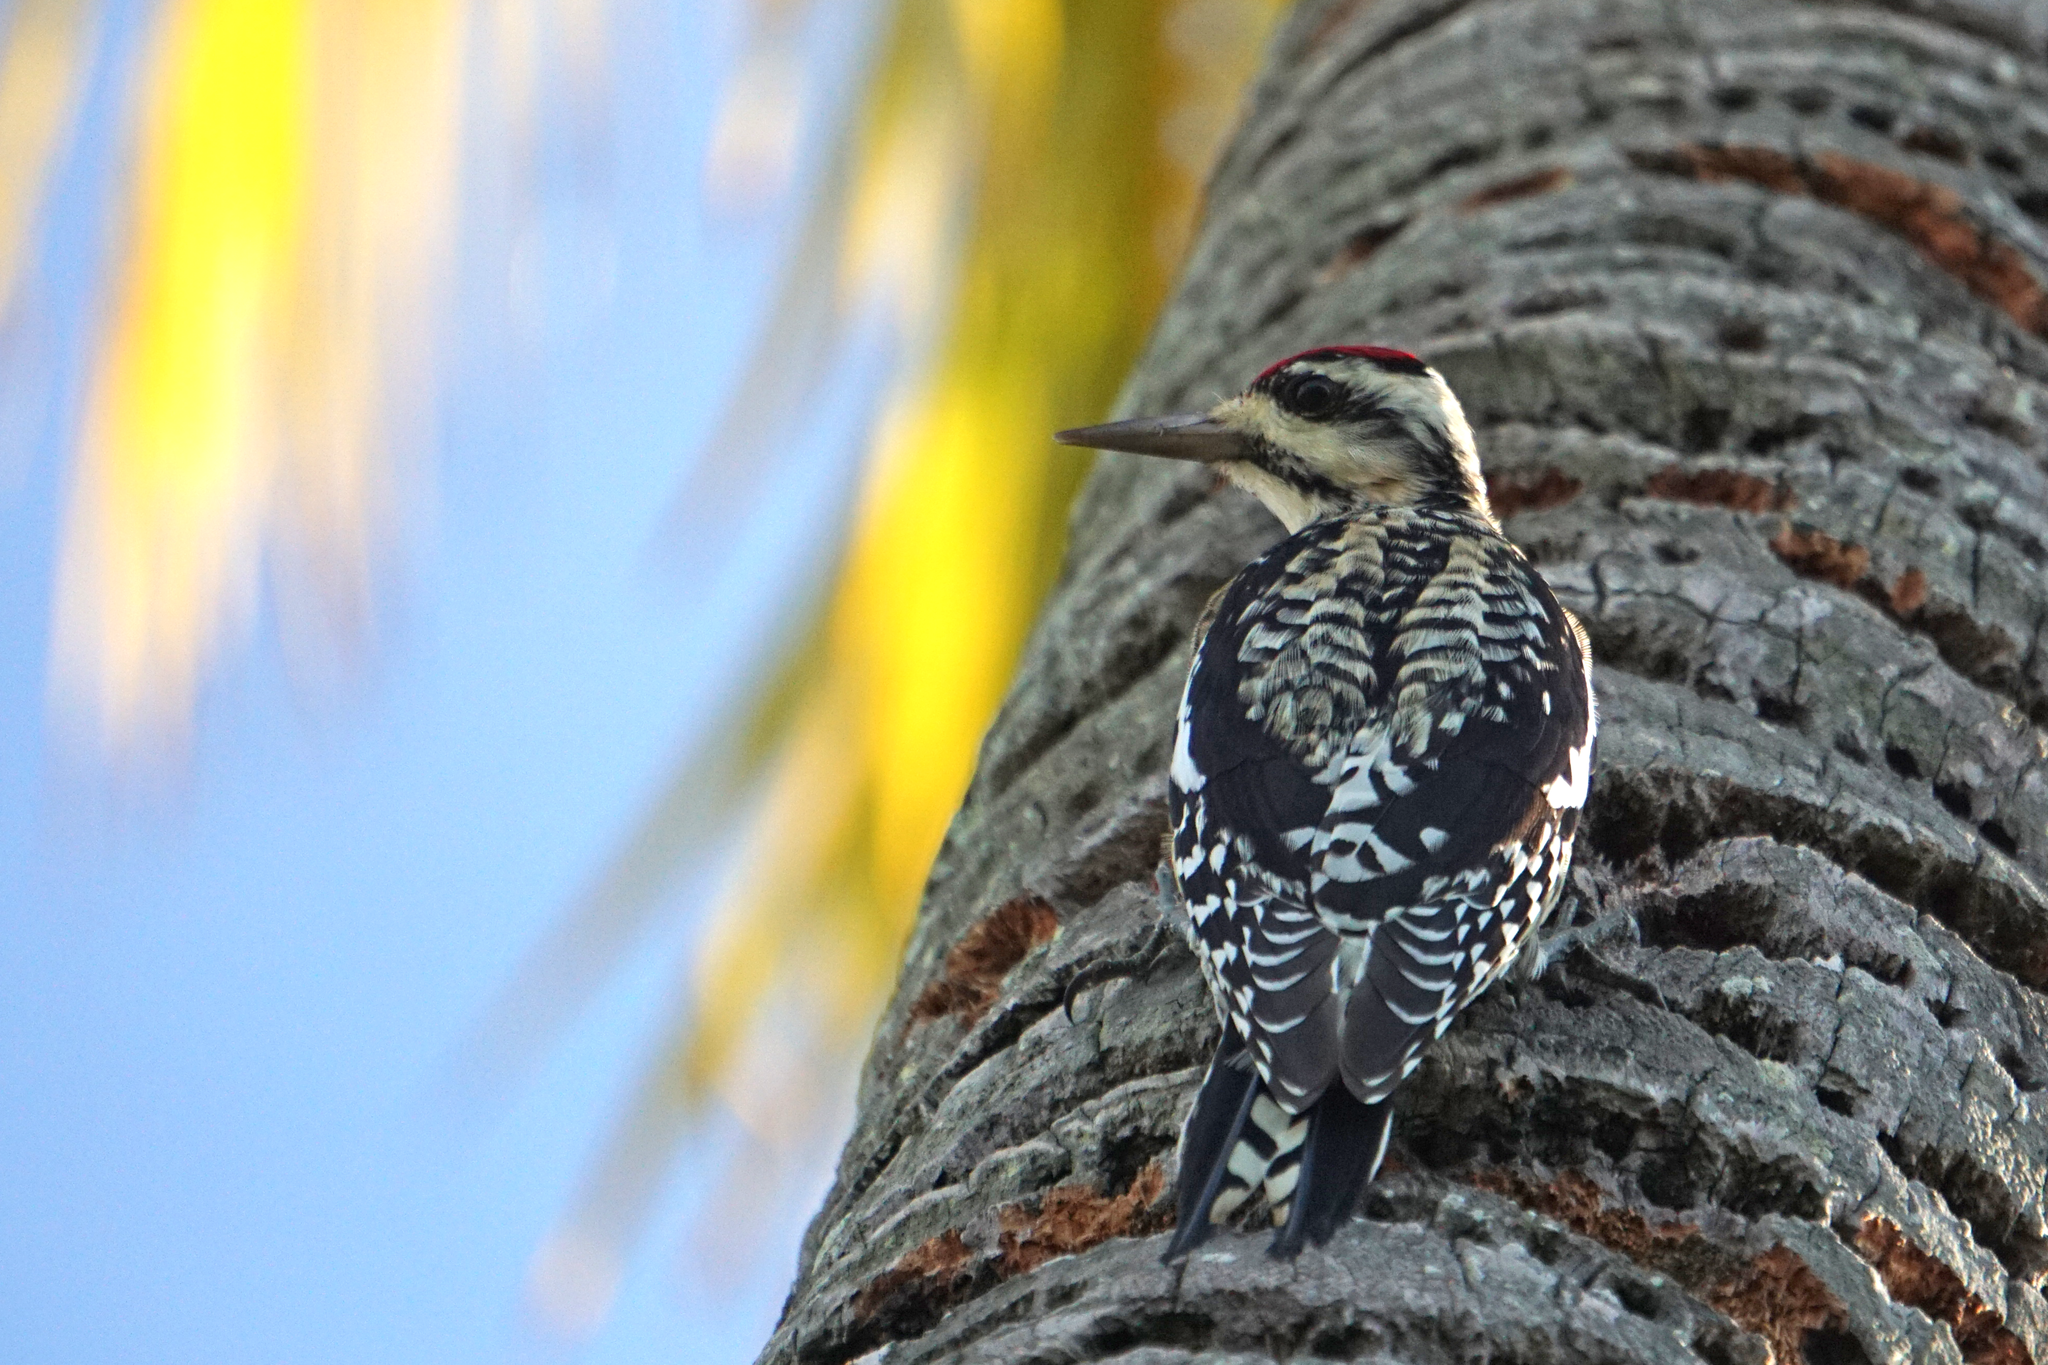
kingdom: Animalia
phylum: Chordata
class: Aves
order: Piciformes
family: Picidae
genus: Sphyrapicus
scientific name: Sphyrapicus varius
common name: Yellow-bellied sapsucker
